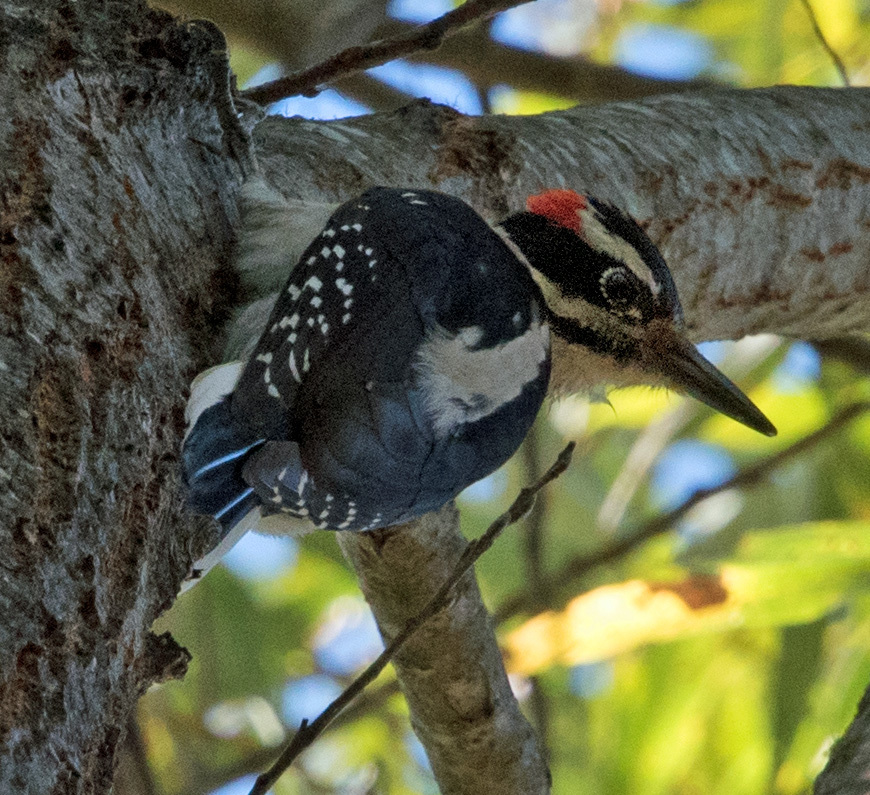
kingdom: Animalia
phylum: Chordata
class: Aves
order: Piciformes
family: Picidae
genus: Leuconotopicus
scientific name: Leuconotopicus villosus
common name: Hairy woodpecker
